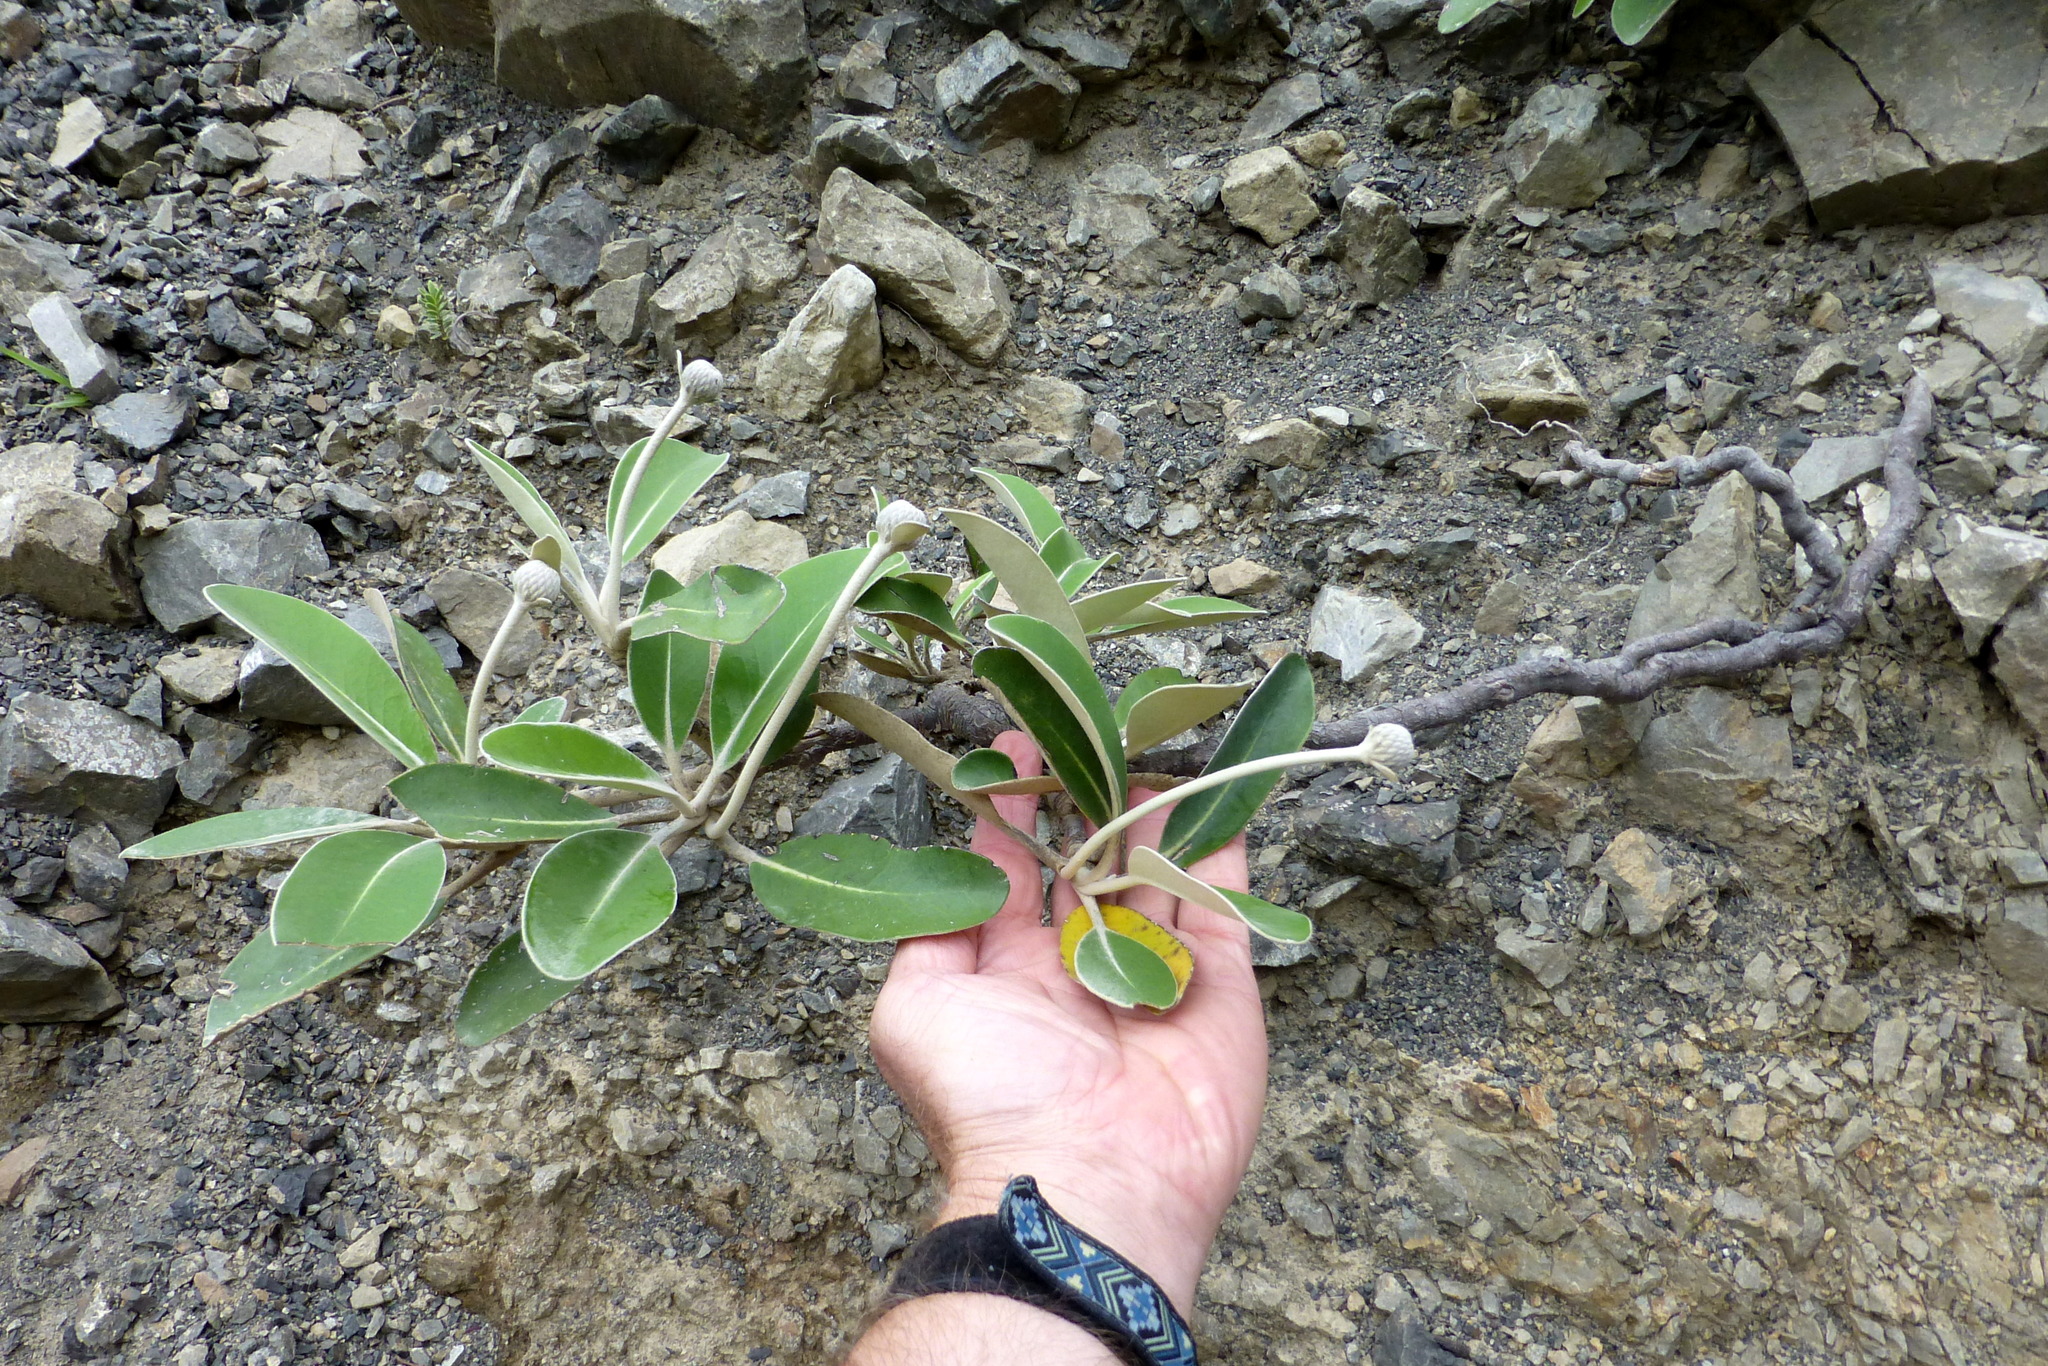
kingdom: Plantae
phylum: Tracheophyta
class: Magnoliopsida
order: Asterales
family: Asteraceae
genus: Pachystegia
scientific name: Pachystegia minor
